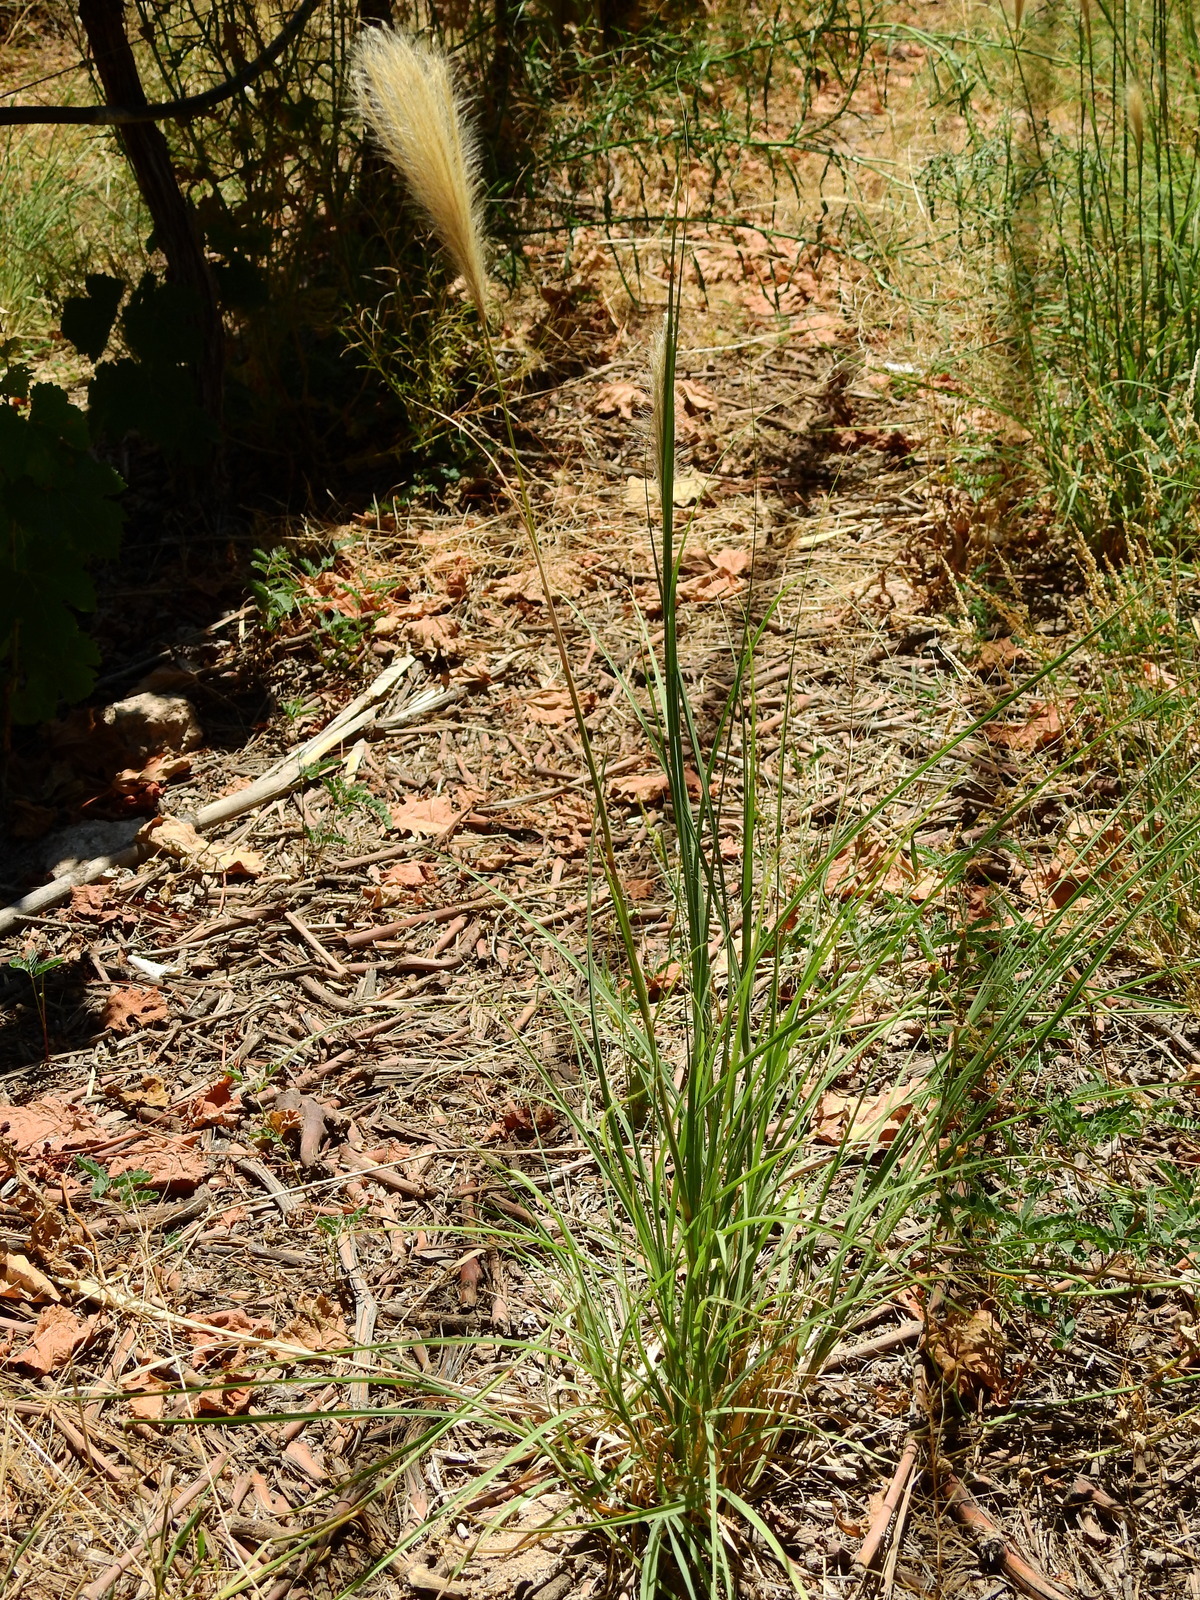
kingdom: Plantae
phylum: Tracheophyta
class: Liliopsida
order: Poales
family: Poaceae
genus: Leptochloa
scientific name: Leptochloa crinita
